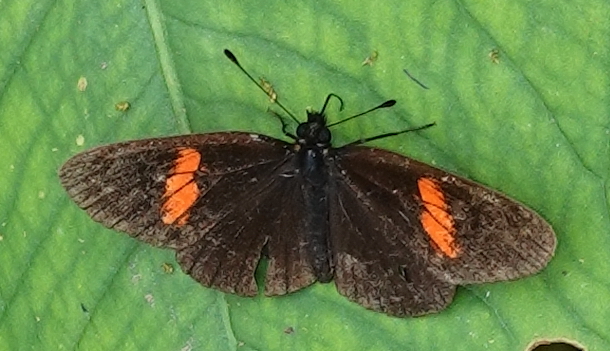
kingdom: Animalia
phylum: Arthropoda
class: Insecta
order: Lepidoptera
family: Nymphalidae
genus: Castilia
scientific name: Castilia castilla
